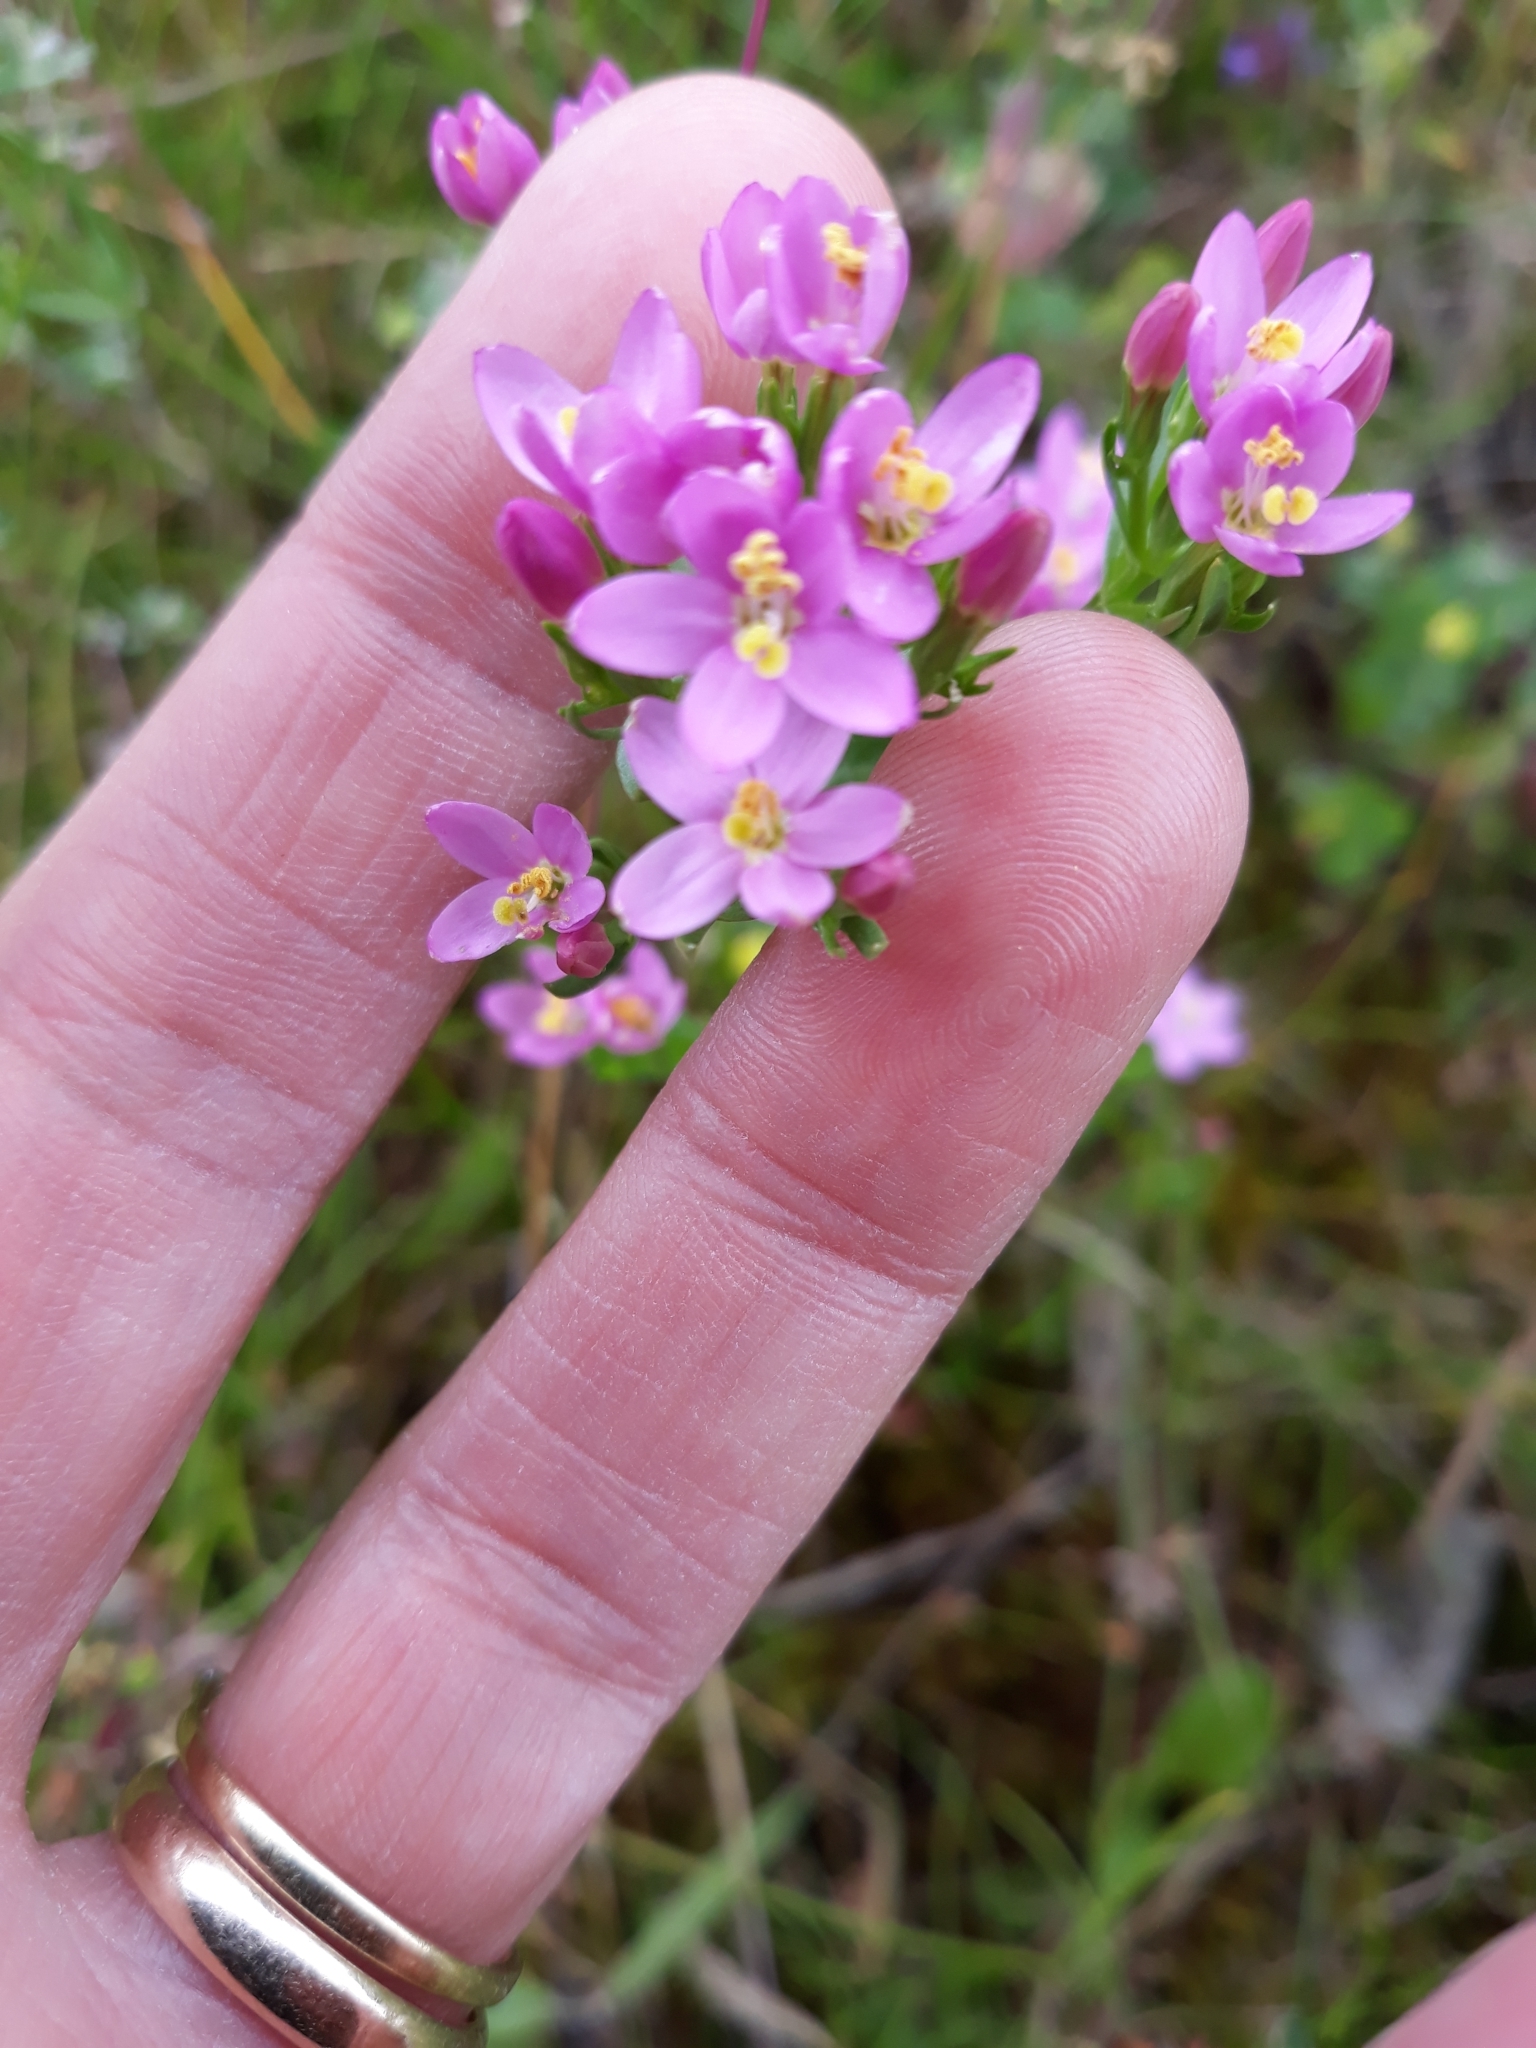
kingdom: Plantae
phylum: Tracheophyta
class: Magnoliopsida
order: Gentianales
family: Gentianaceae
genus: Centaurium
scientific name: Centaurium erythraea
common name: Common centaury
